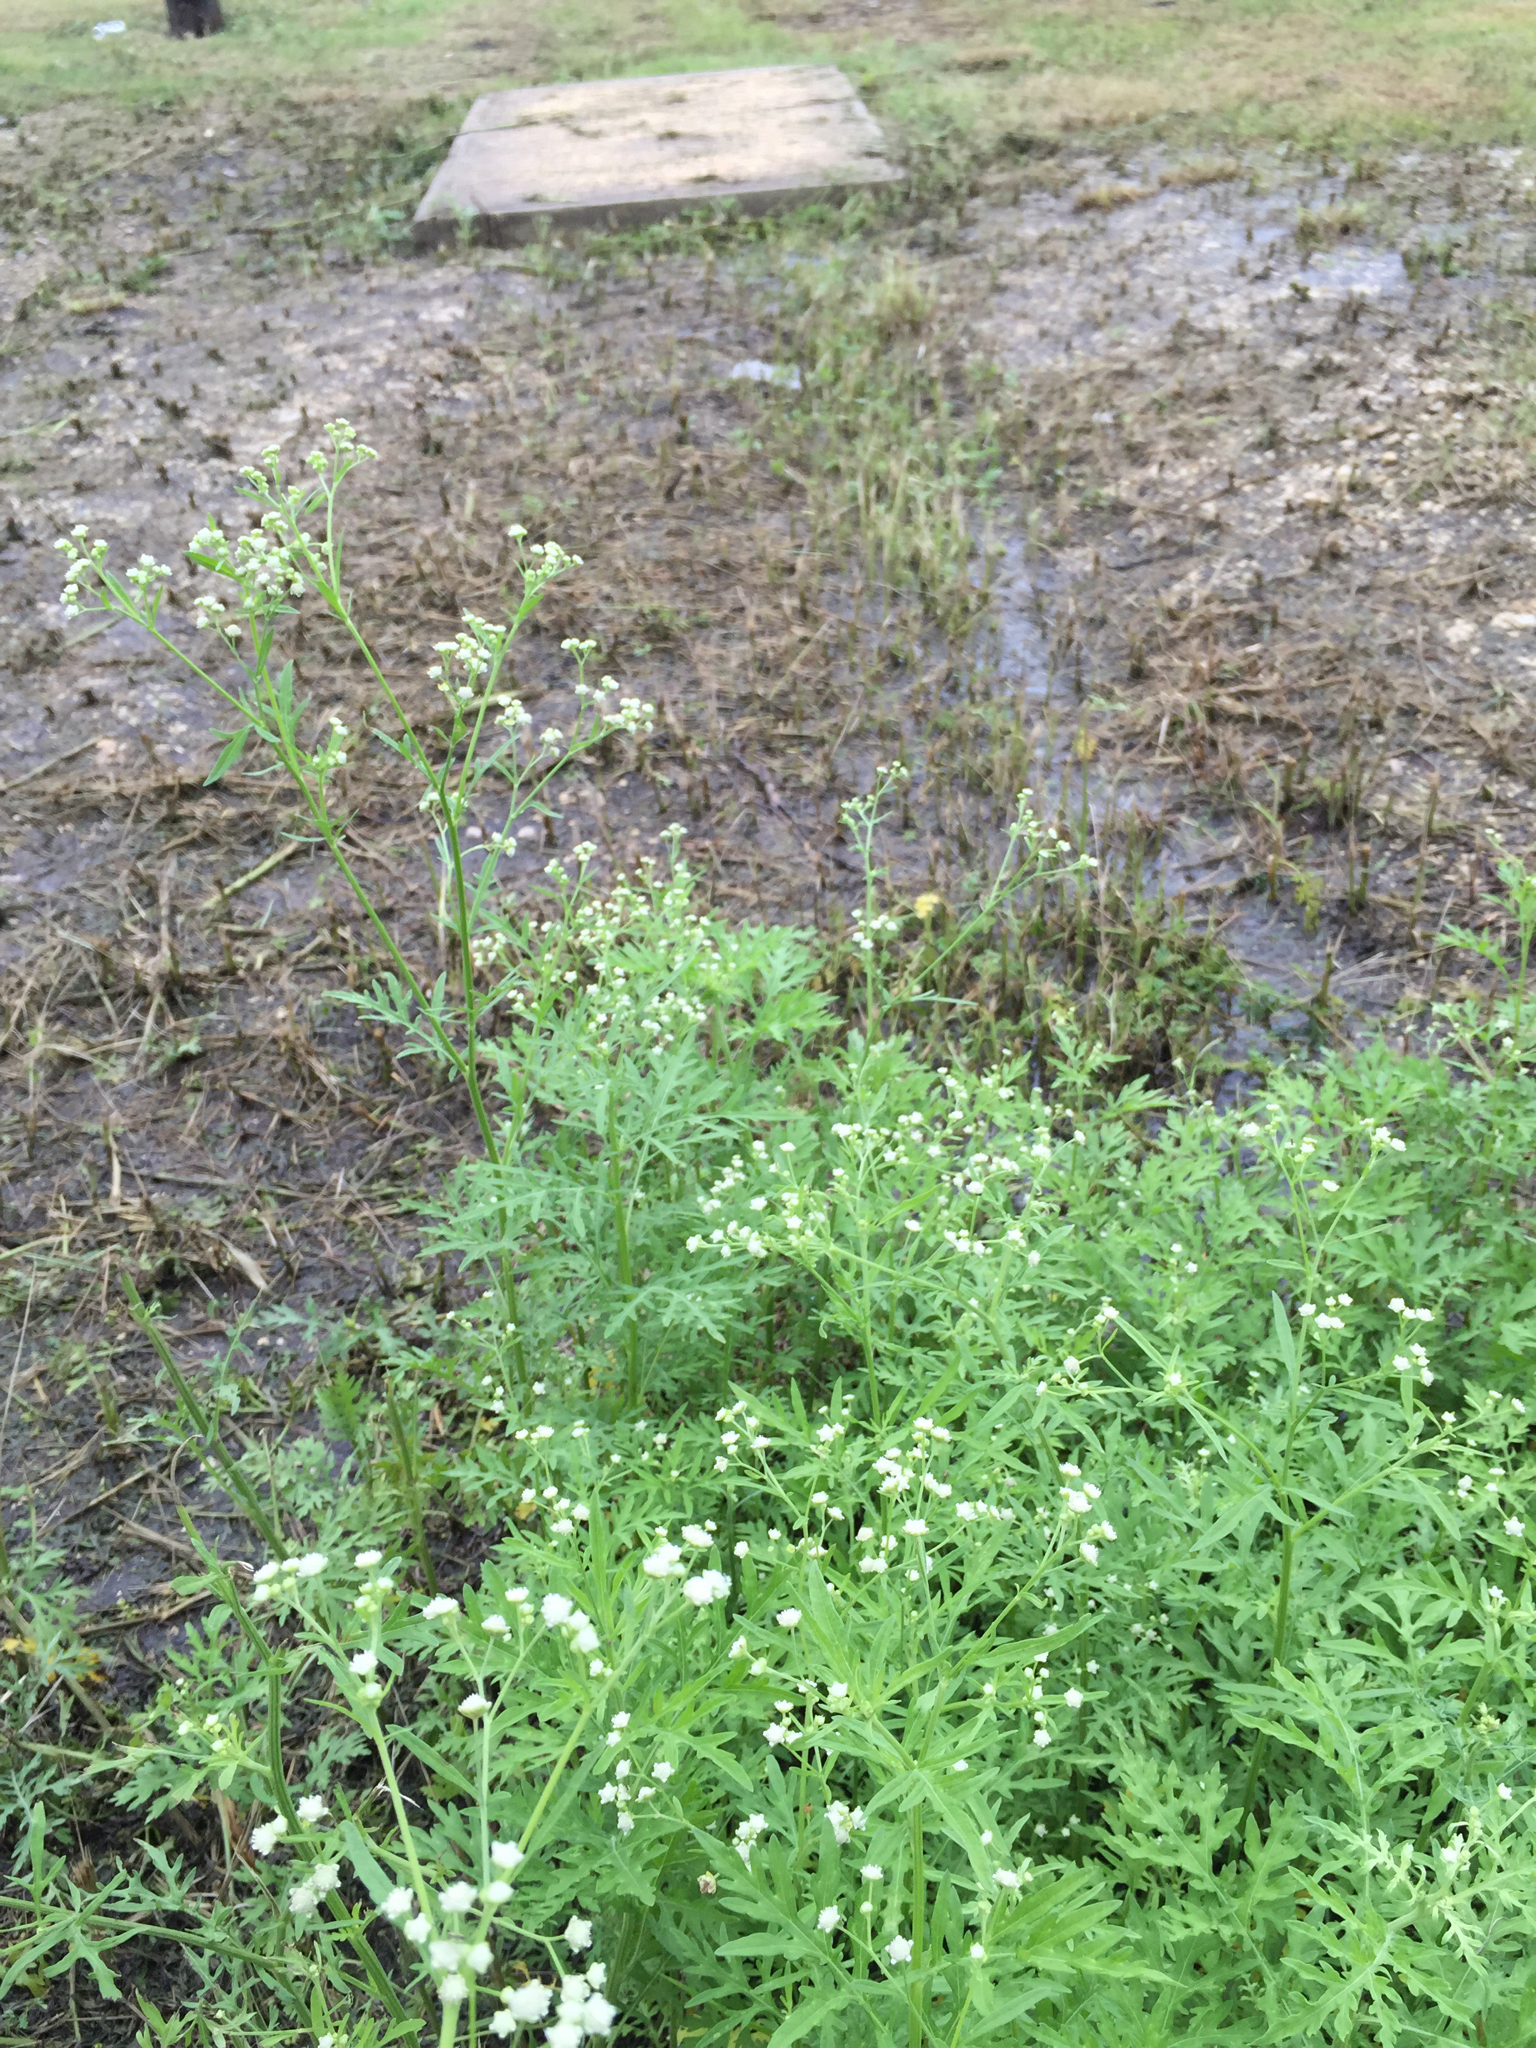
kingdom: Plantae
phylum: Tracheophyta
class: Magnoliopsida
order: Asterales
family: Asteraceae
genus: Parthenium
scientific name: Parthenium hysterophorus
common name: Santa maria feverfew
